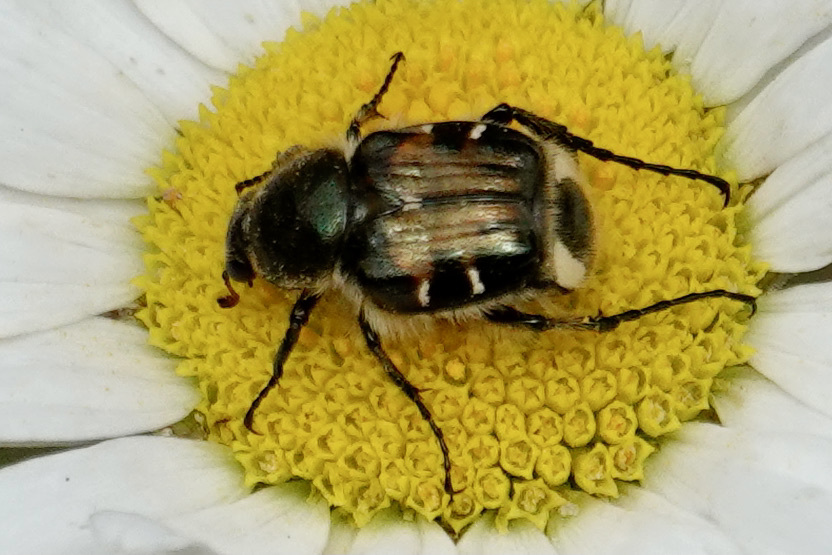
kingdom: Animalia
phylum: Arthropoda
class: Insecta
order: Coleoptera
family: Scarabaeidae
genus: Trichiotinus
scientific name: Trichiotinus affinis
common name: Hairy flower scarab
